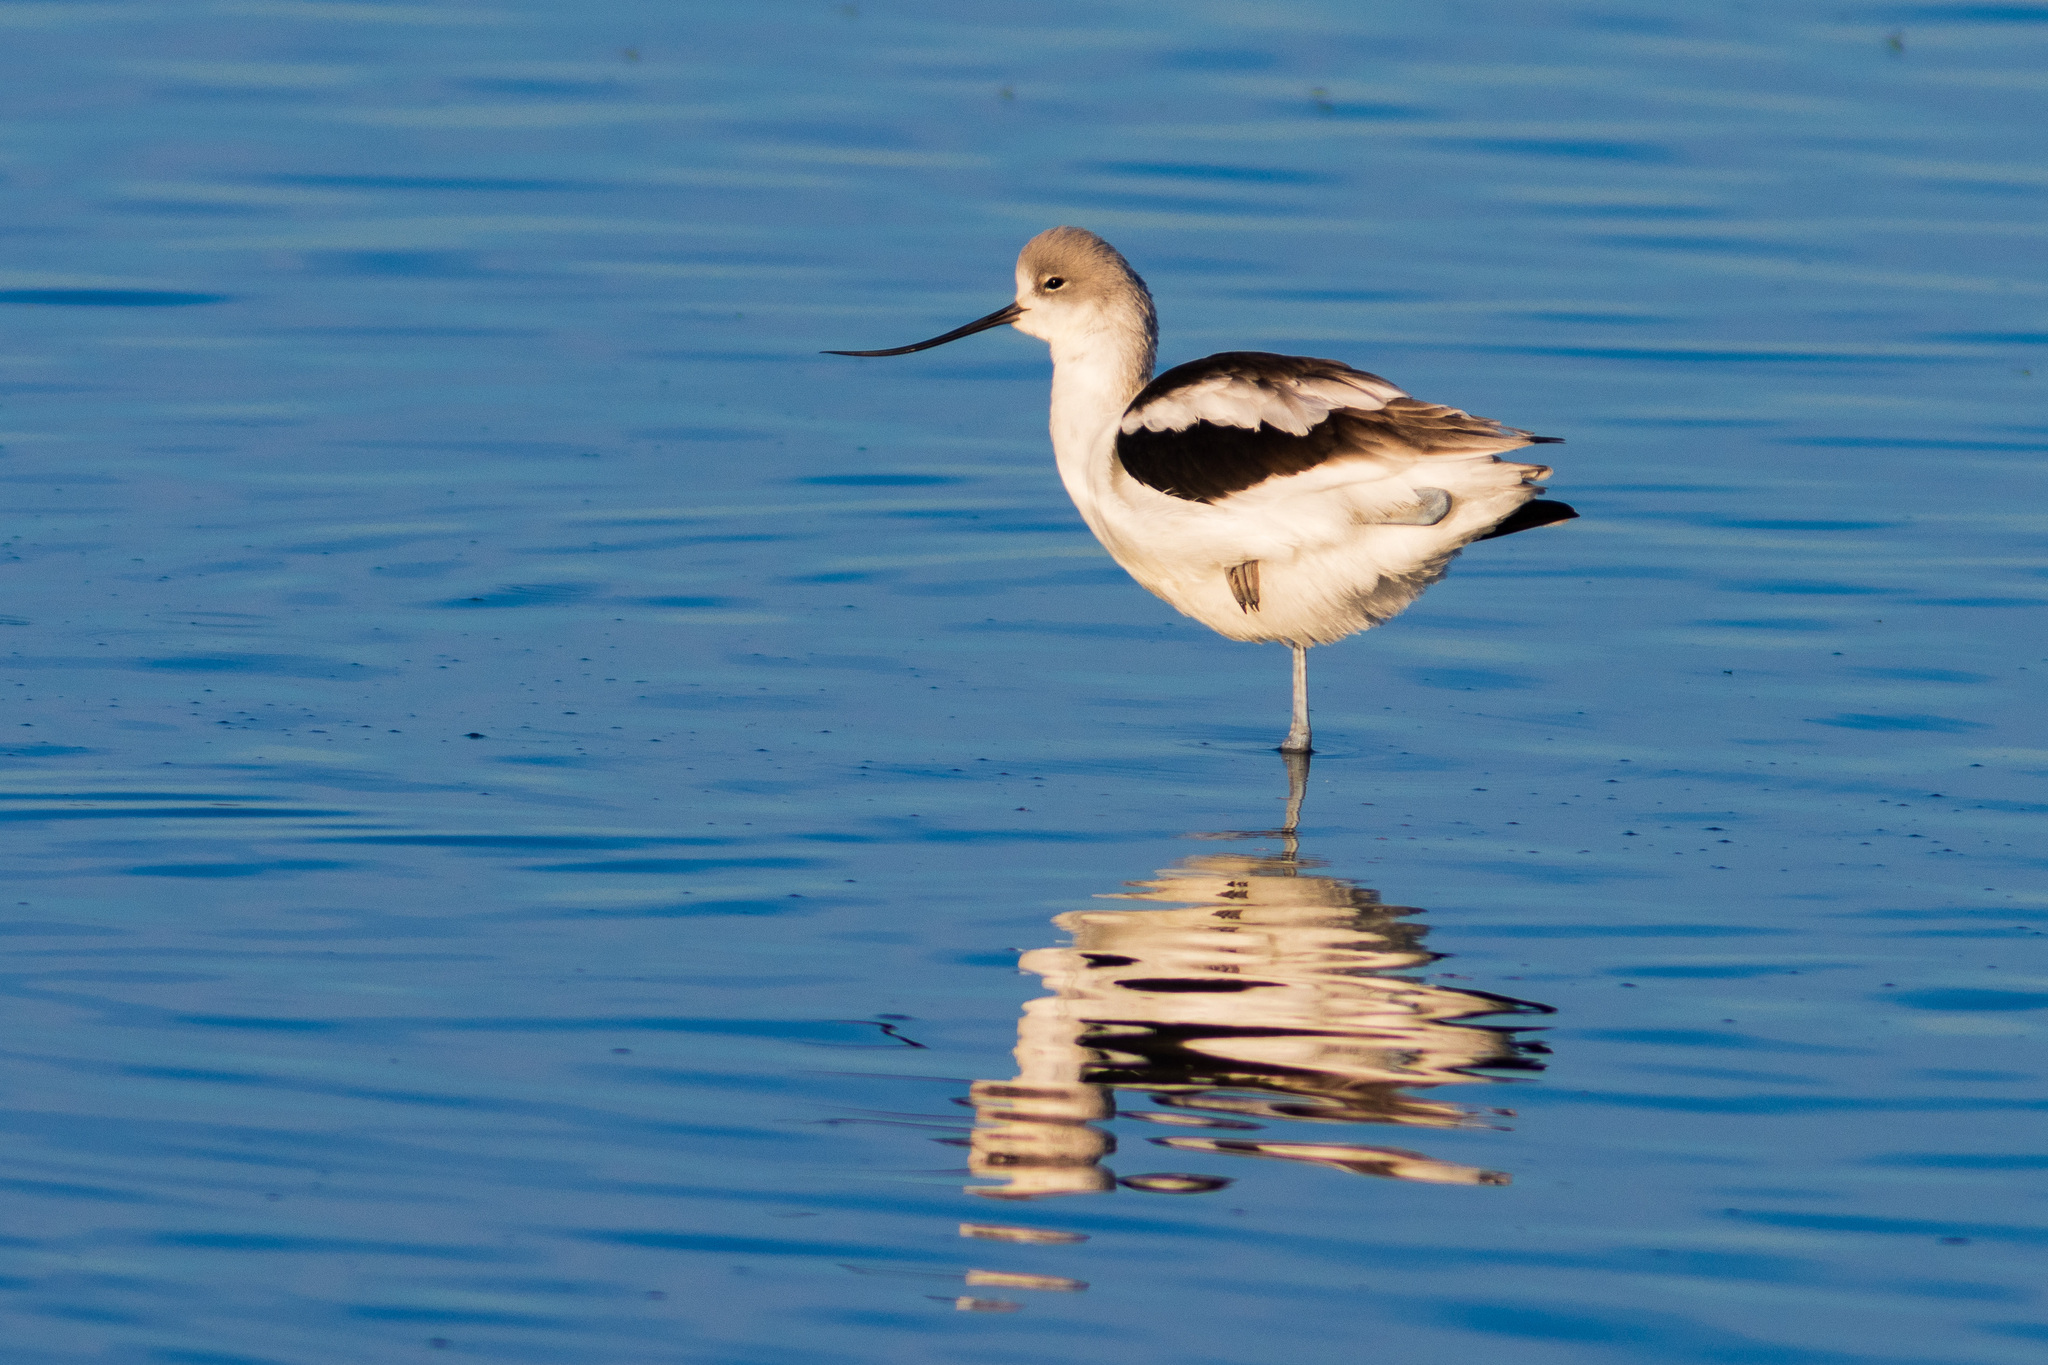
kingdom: Animalia
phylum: Chordata
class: Aves
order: Charadriiformes
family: Recurvirostridae
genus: Recurvirostra
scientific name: Recurvirostra americana
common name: American avocet
